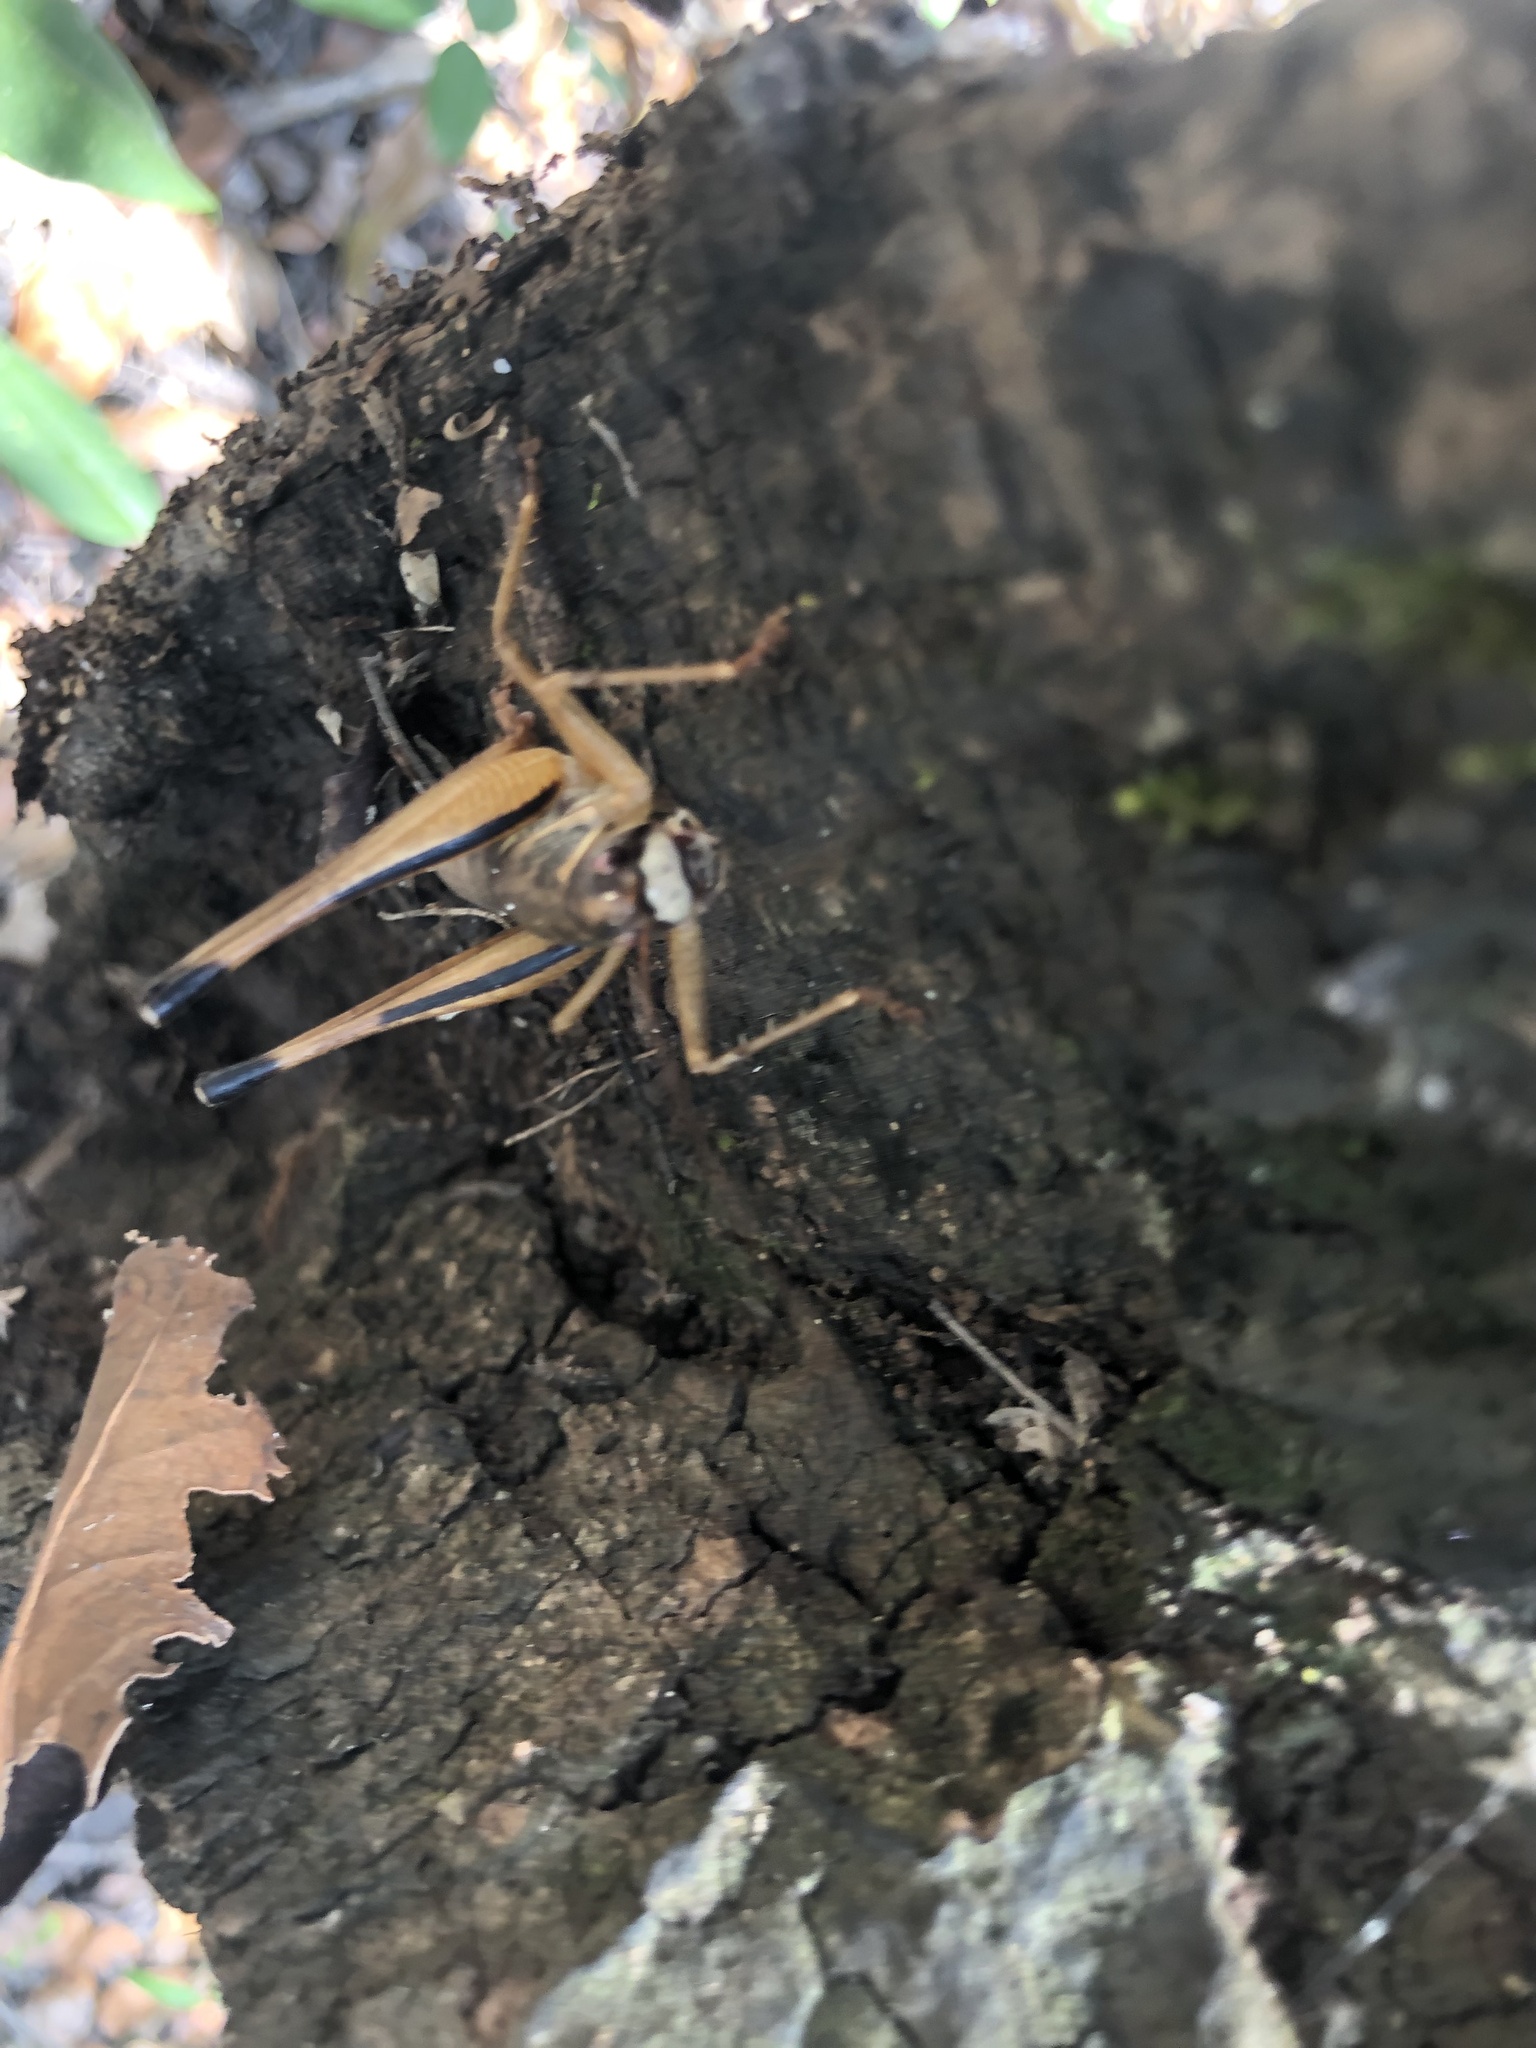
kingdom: Animalia
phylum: Arthropoda
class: Insecta
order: Orthoptera
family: Tettigoniidae
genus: Pediodectes
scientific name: Pediodectes tinkhami
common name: Tinkham's shieldback
